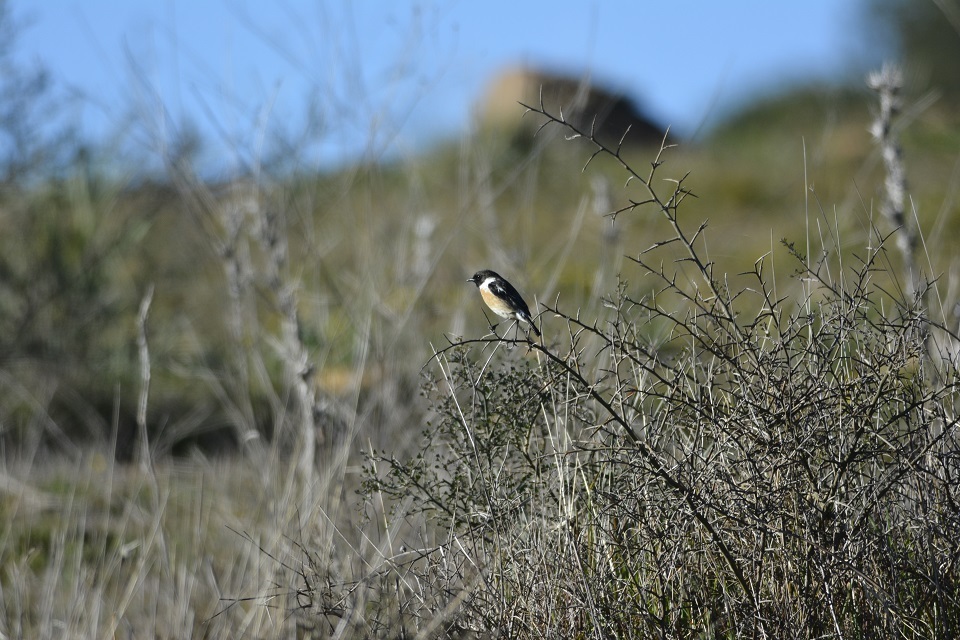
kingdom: Animalia
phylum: Chordata
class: Aves
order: Passeriformes
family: Muscicapidae
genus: Saxicola
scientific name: Saxicola rubicola
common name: European stonechat
